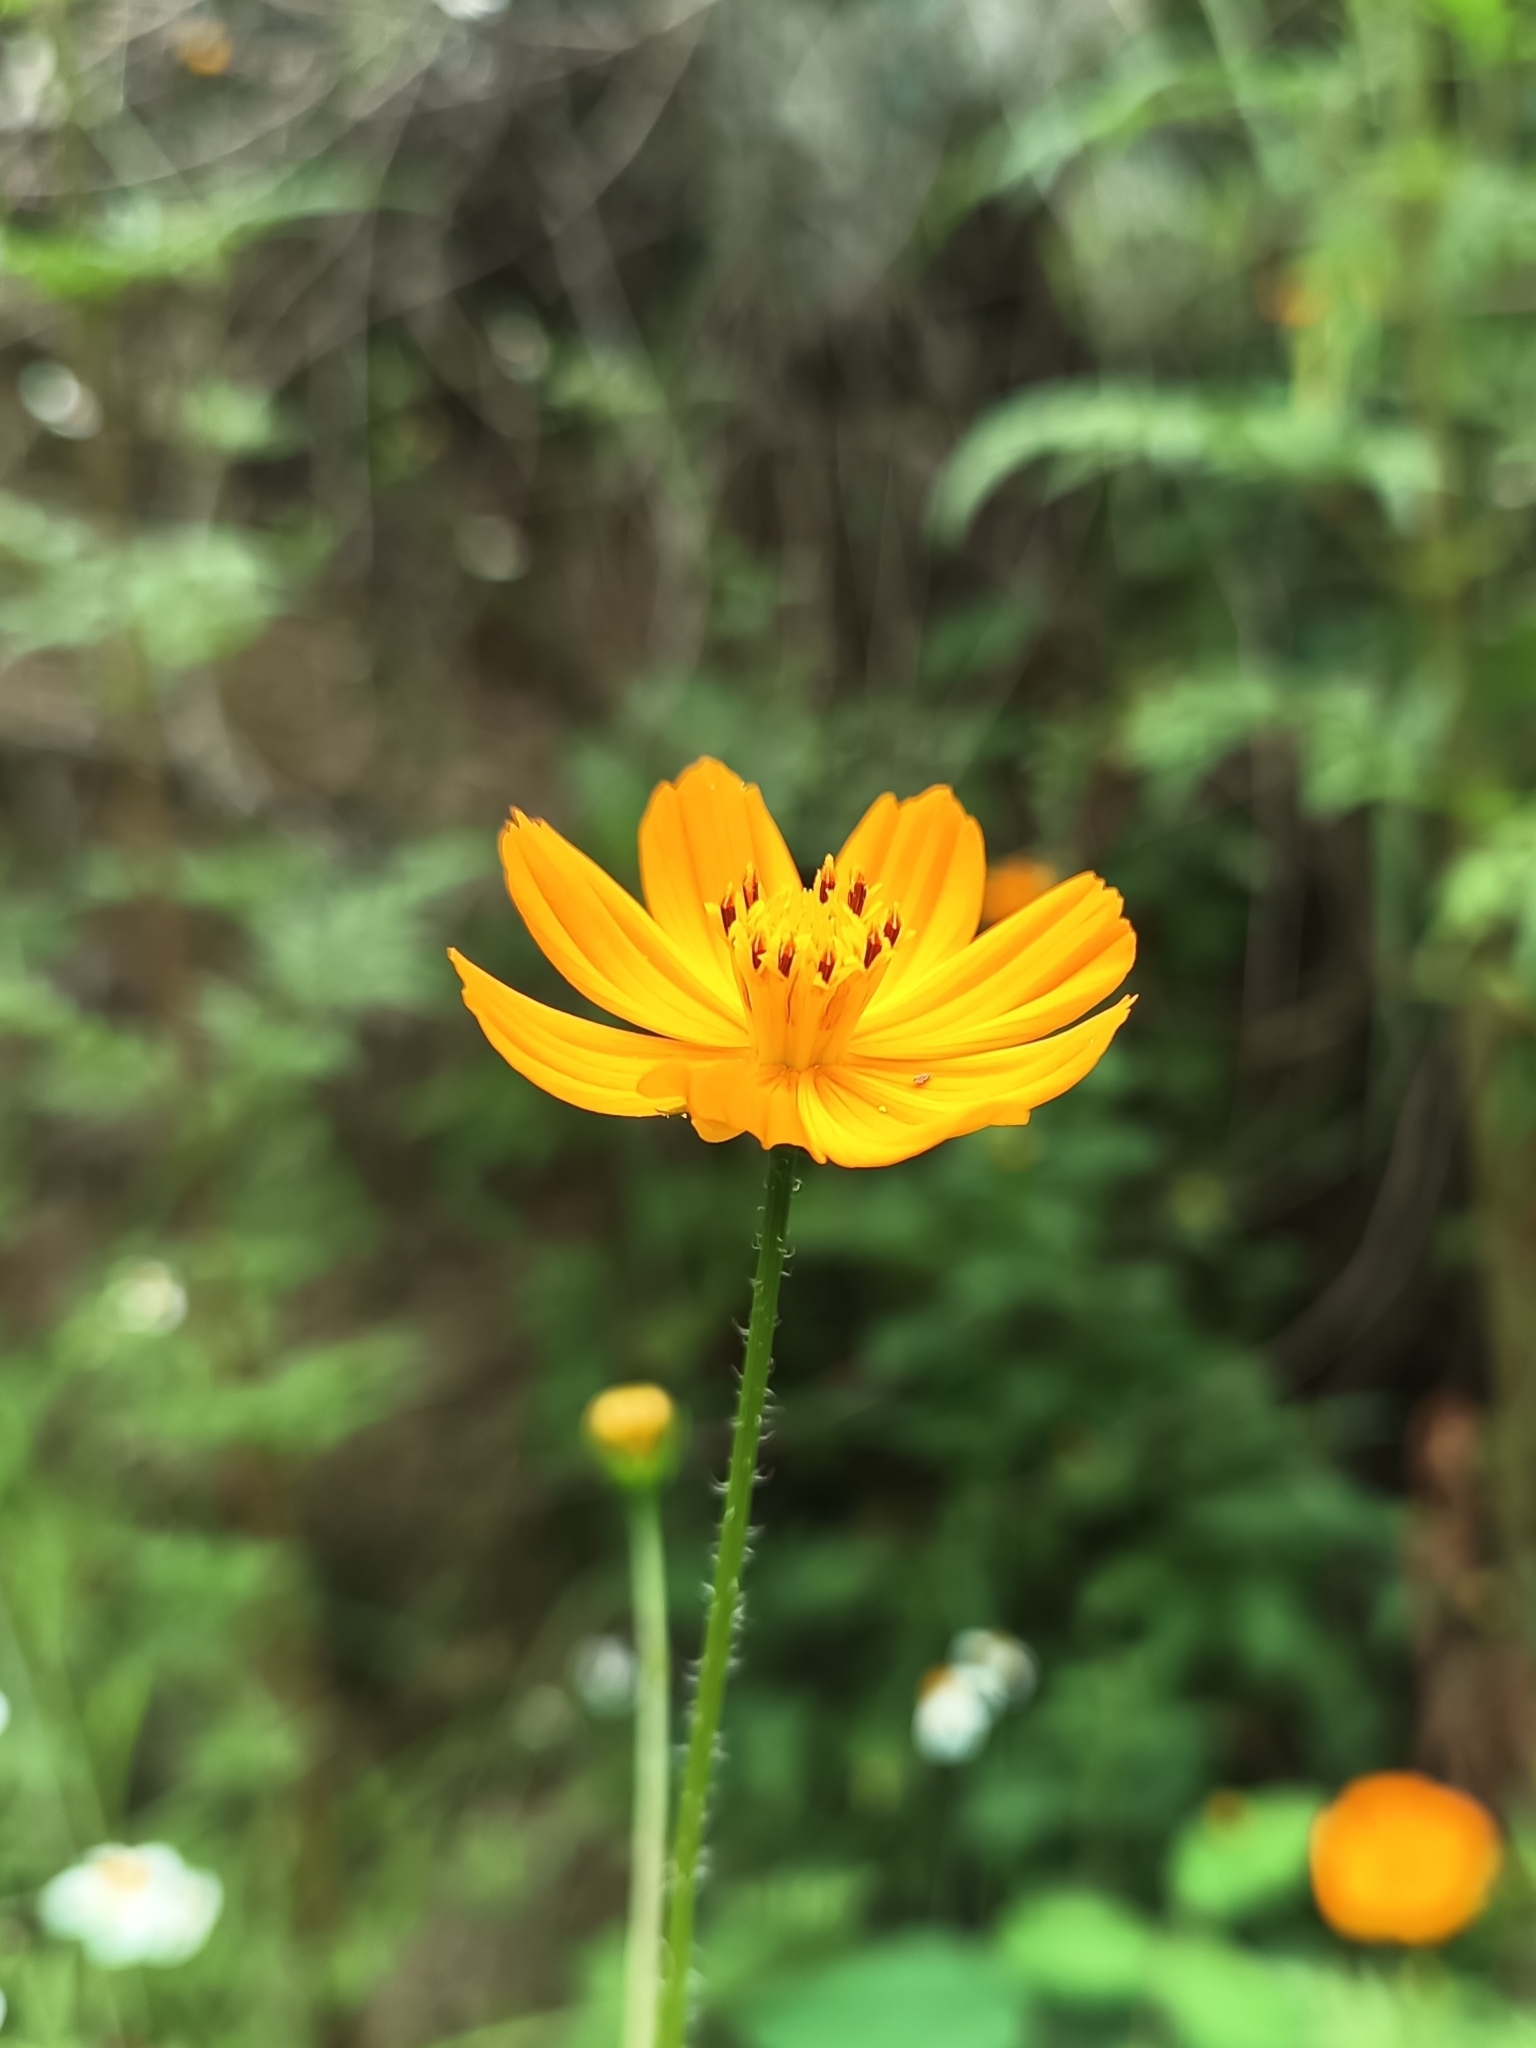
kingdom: Plantae
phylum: Tracheophyta
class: Magnoliopsida
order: Asterales
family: Asteraceae
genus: Cosmos
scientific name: Cosmos sulphureus
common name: Sulphur cosmos
